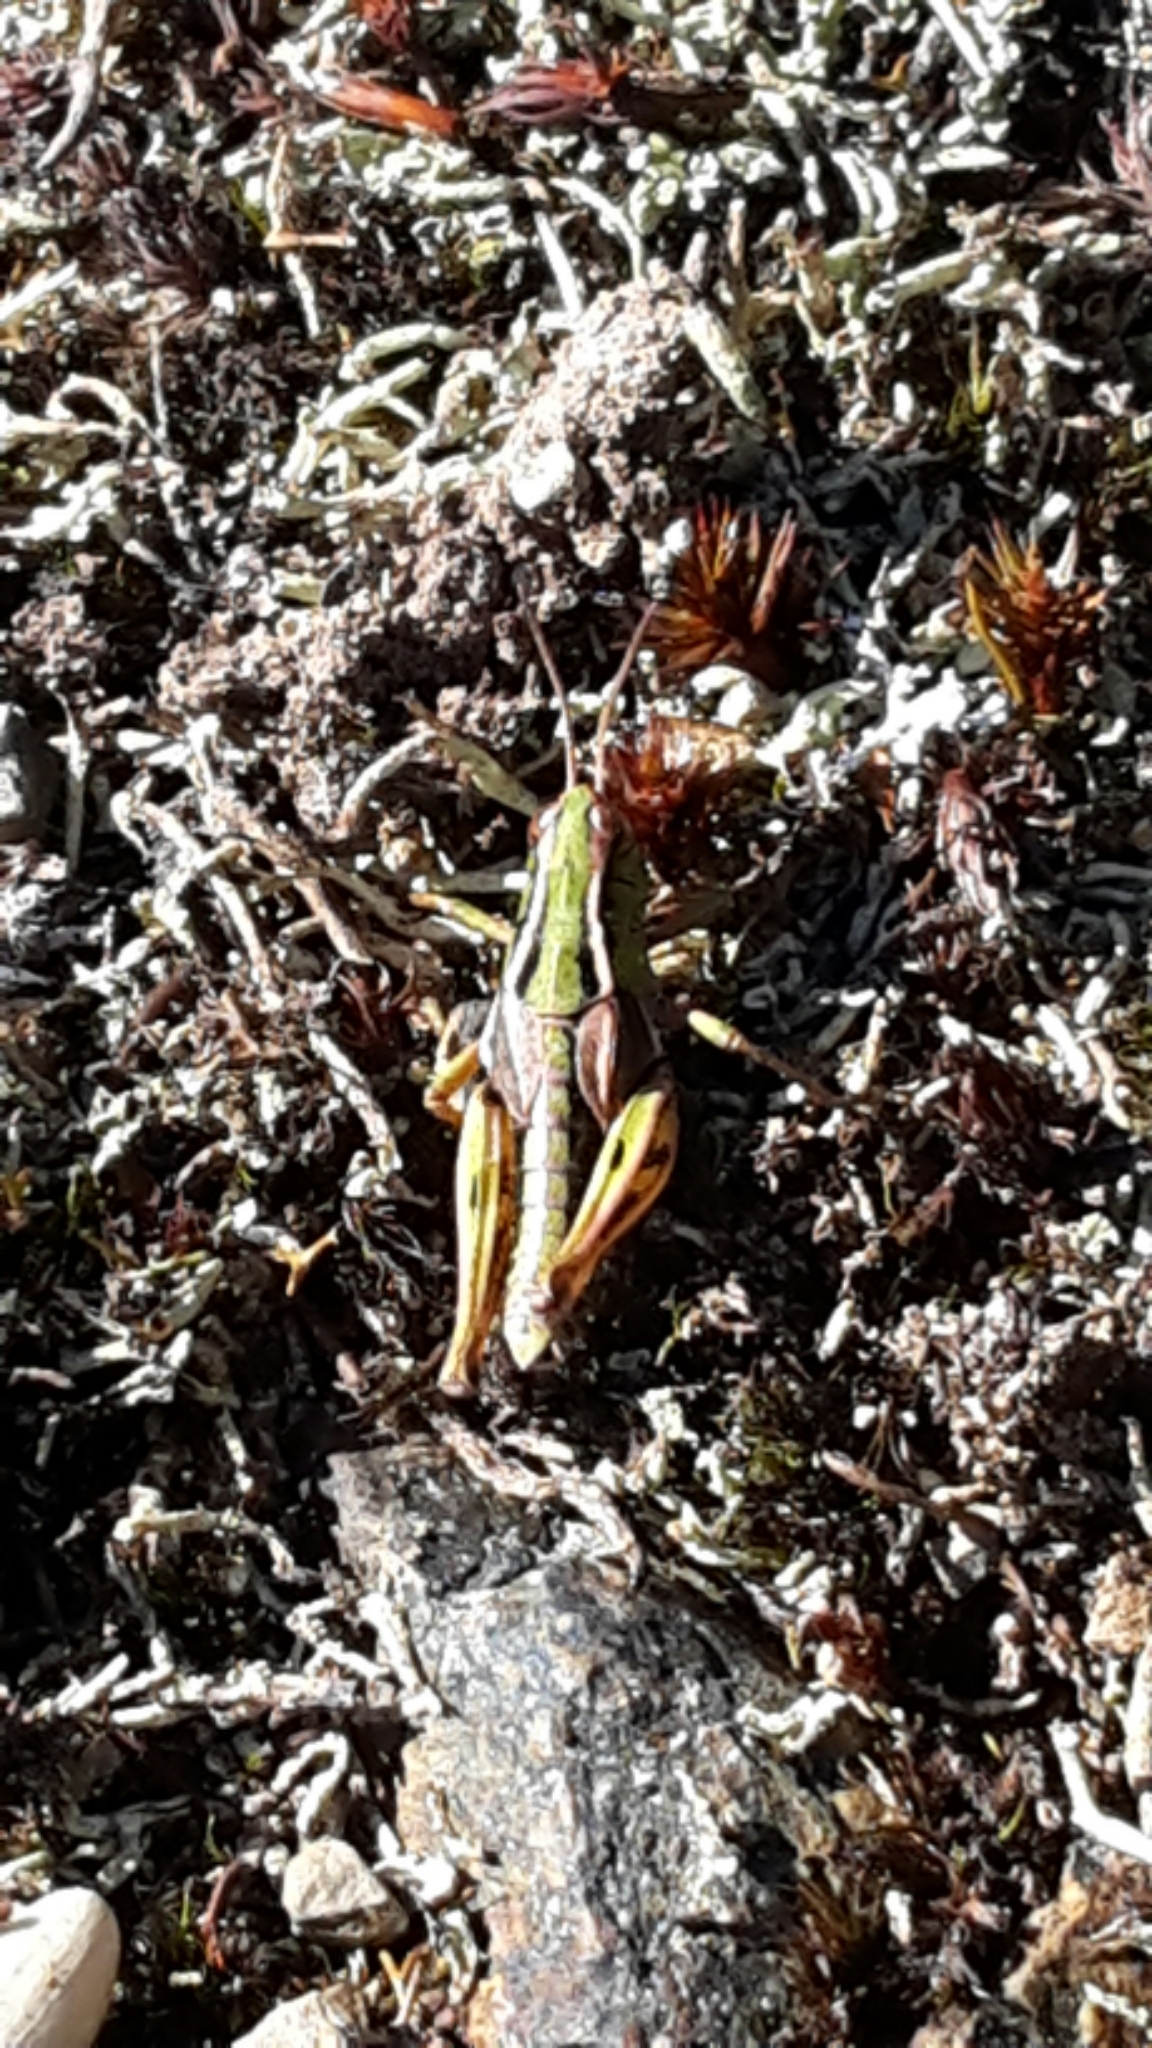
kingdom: Animalia
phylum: Arthropoda
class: Insecta
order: Orthoptera
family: Acrididae
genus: Phaulacridium
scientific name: Phaulacridium marginale
